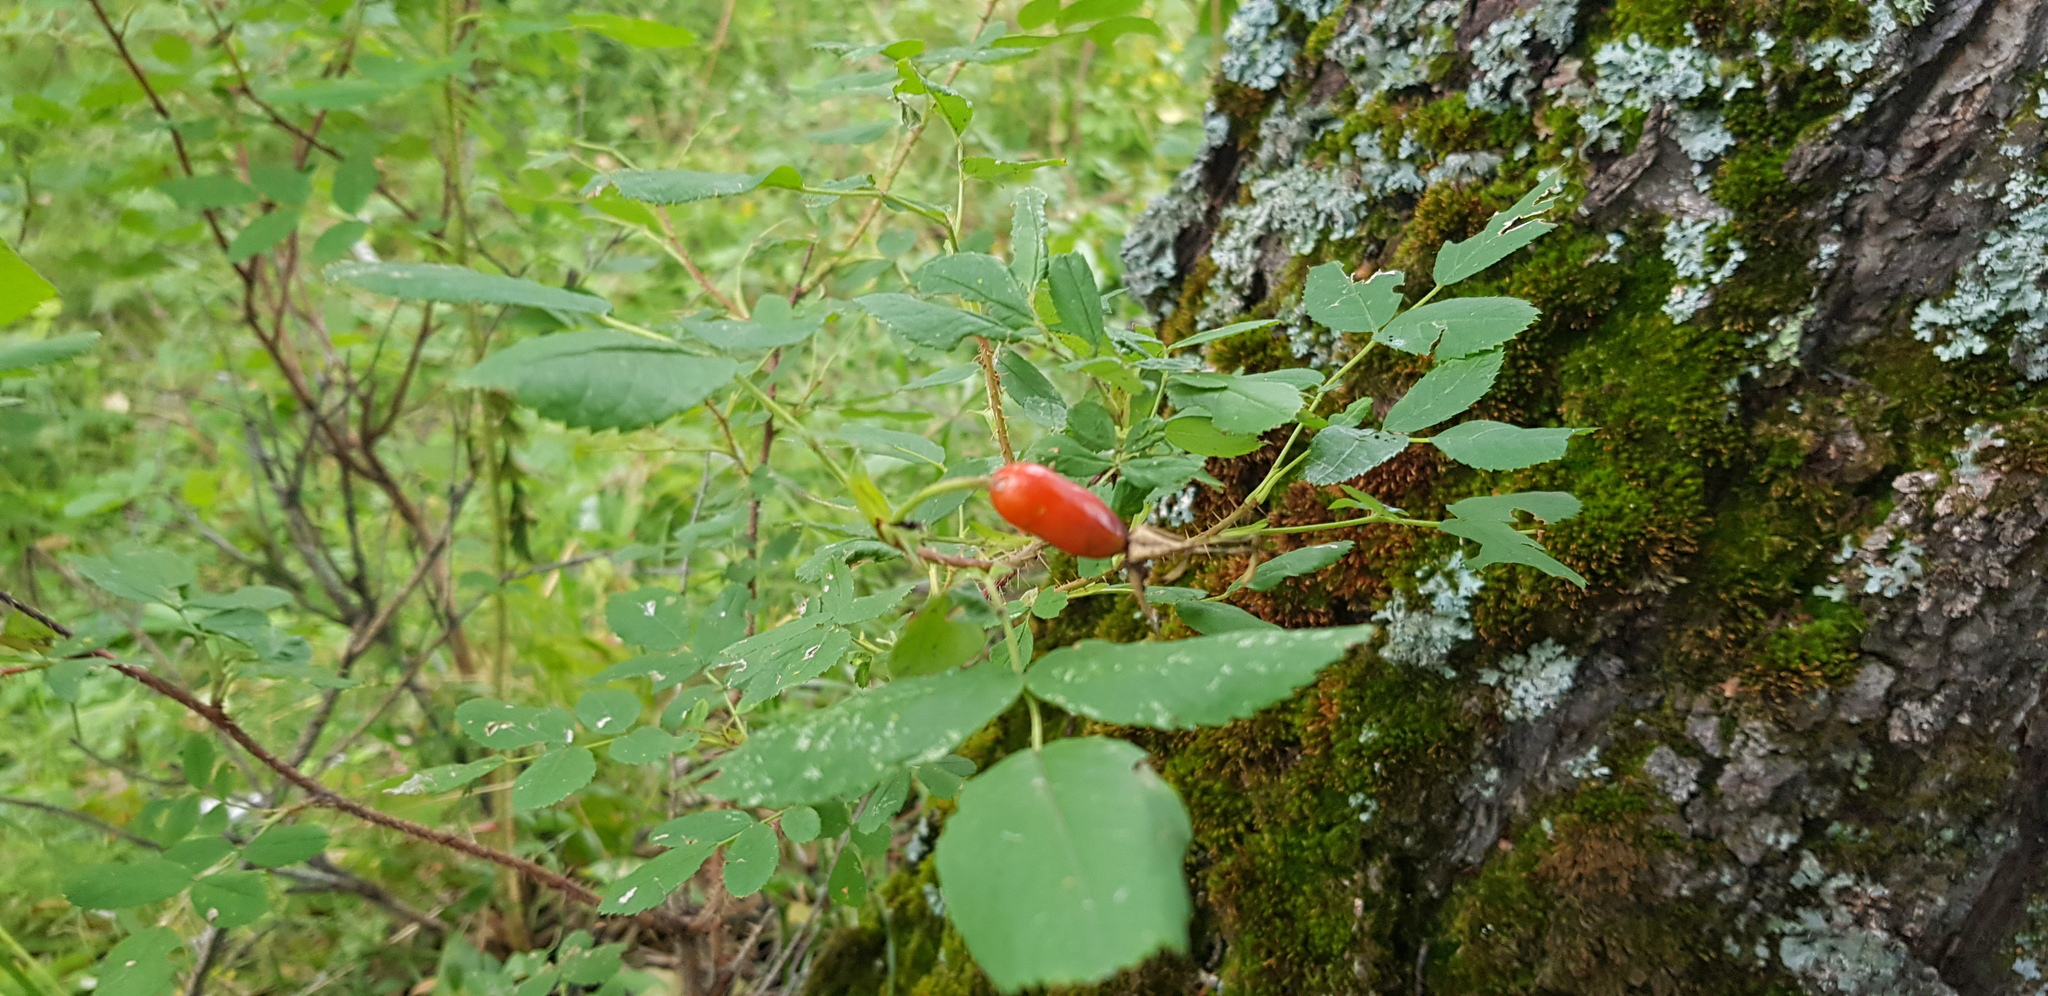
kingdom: Plantae
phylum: Tracheophyta
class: Magnoliopsida
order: Rosales
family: Rosaceae
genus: Rosa
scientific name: Rosa acicularis
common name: Prickly rose
